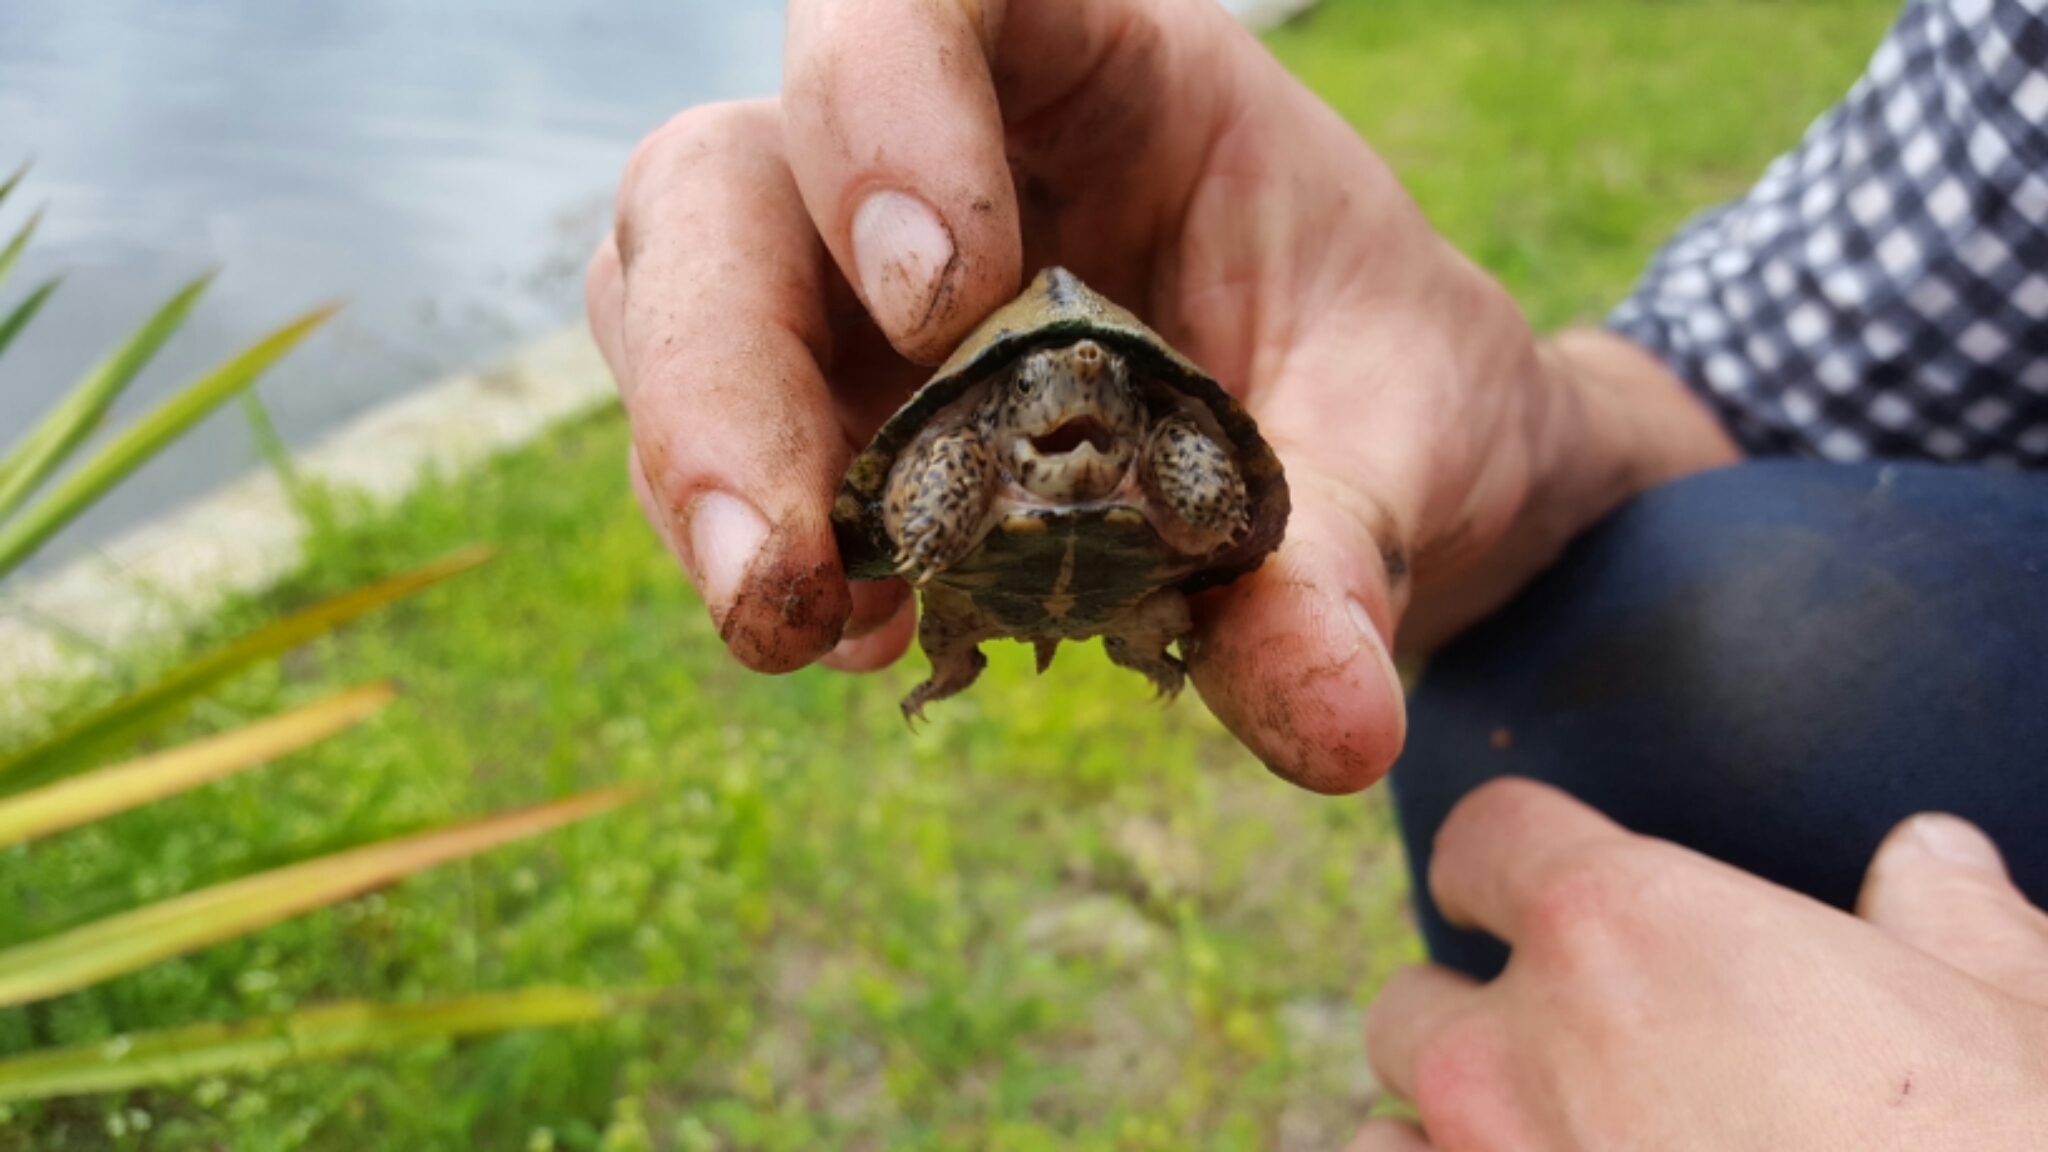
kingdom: Animalia
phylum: Chordata
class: Testudines
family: Kinosternidae
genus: Sternotherus
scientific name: Sternotherus carinatus
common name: Razor-backed musk turtle
